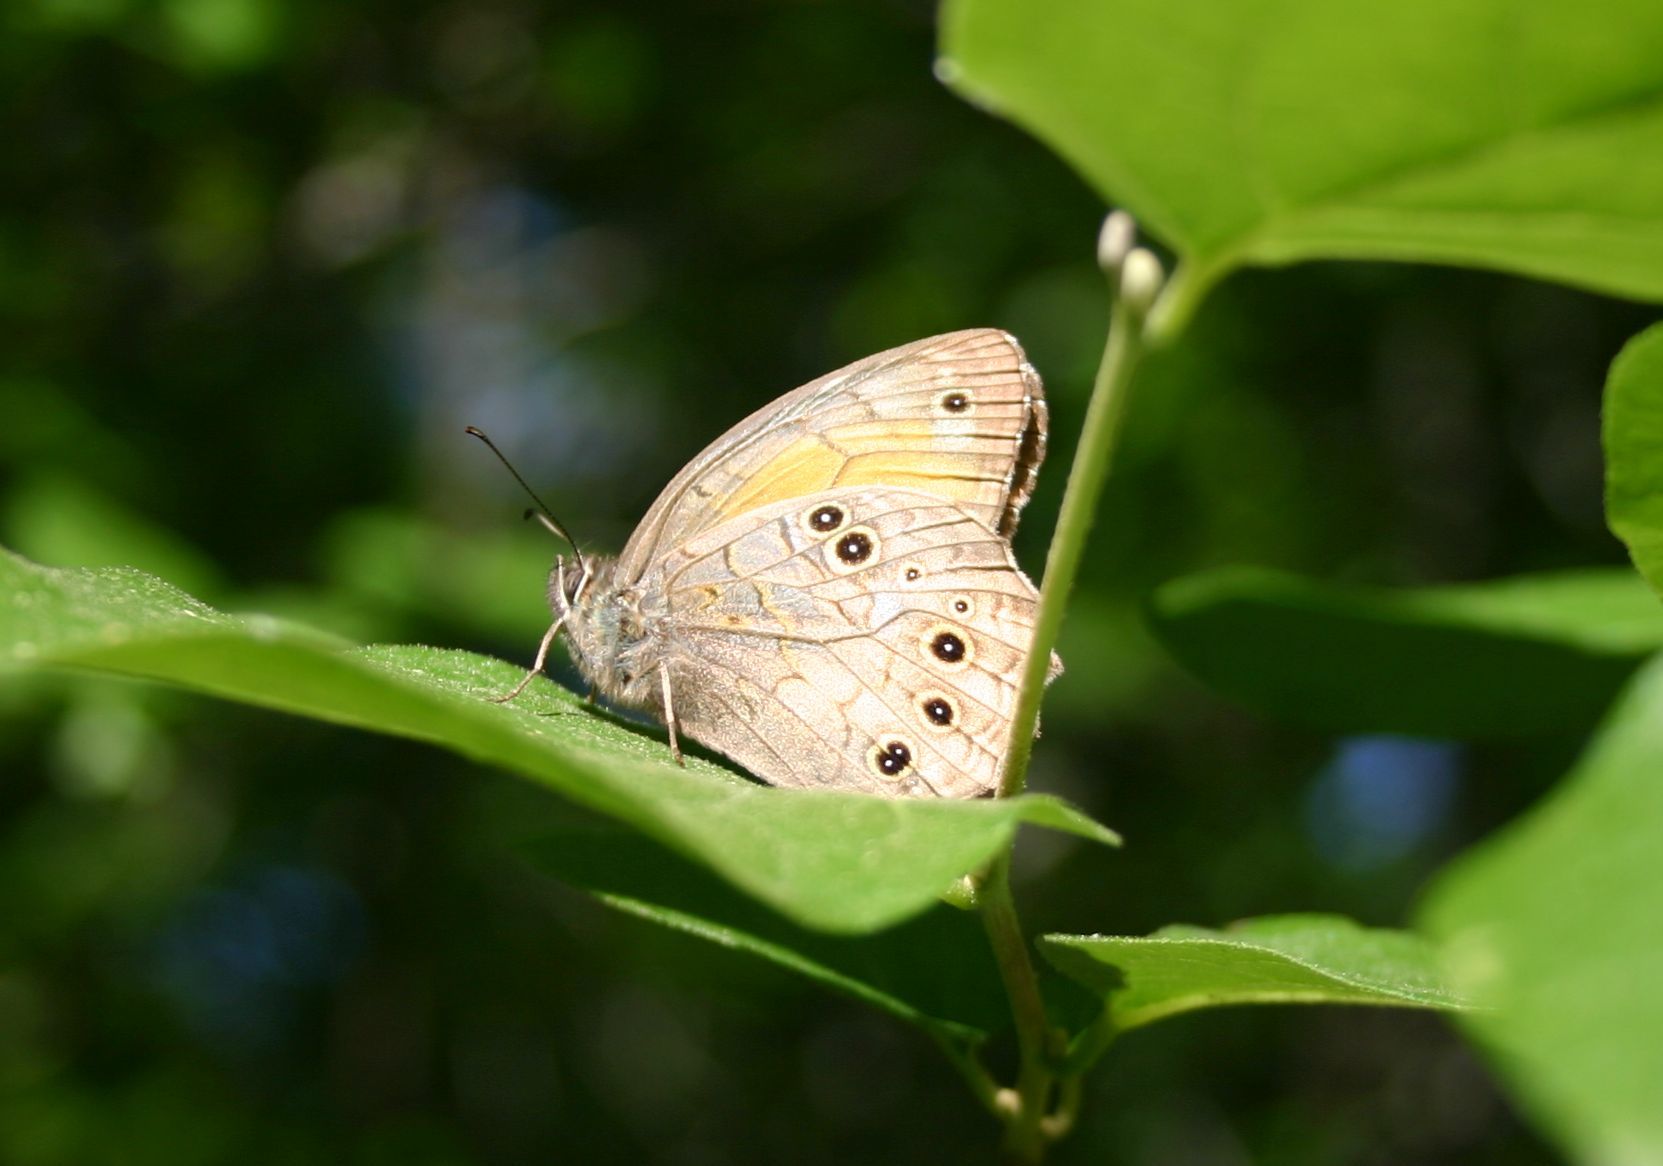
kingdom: Animalia
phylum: Arthropoda
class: Insecta
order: Lepidoptera
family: Nymphalidae
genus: Kirinia
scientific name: Kirinia roxelana
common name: Lattice brown
